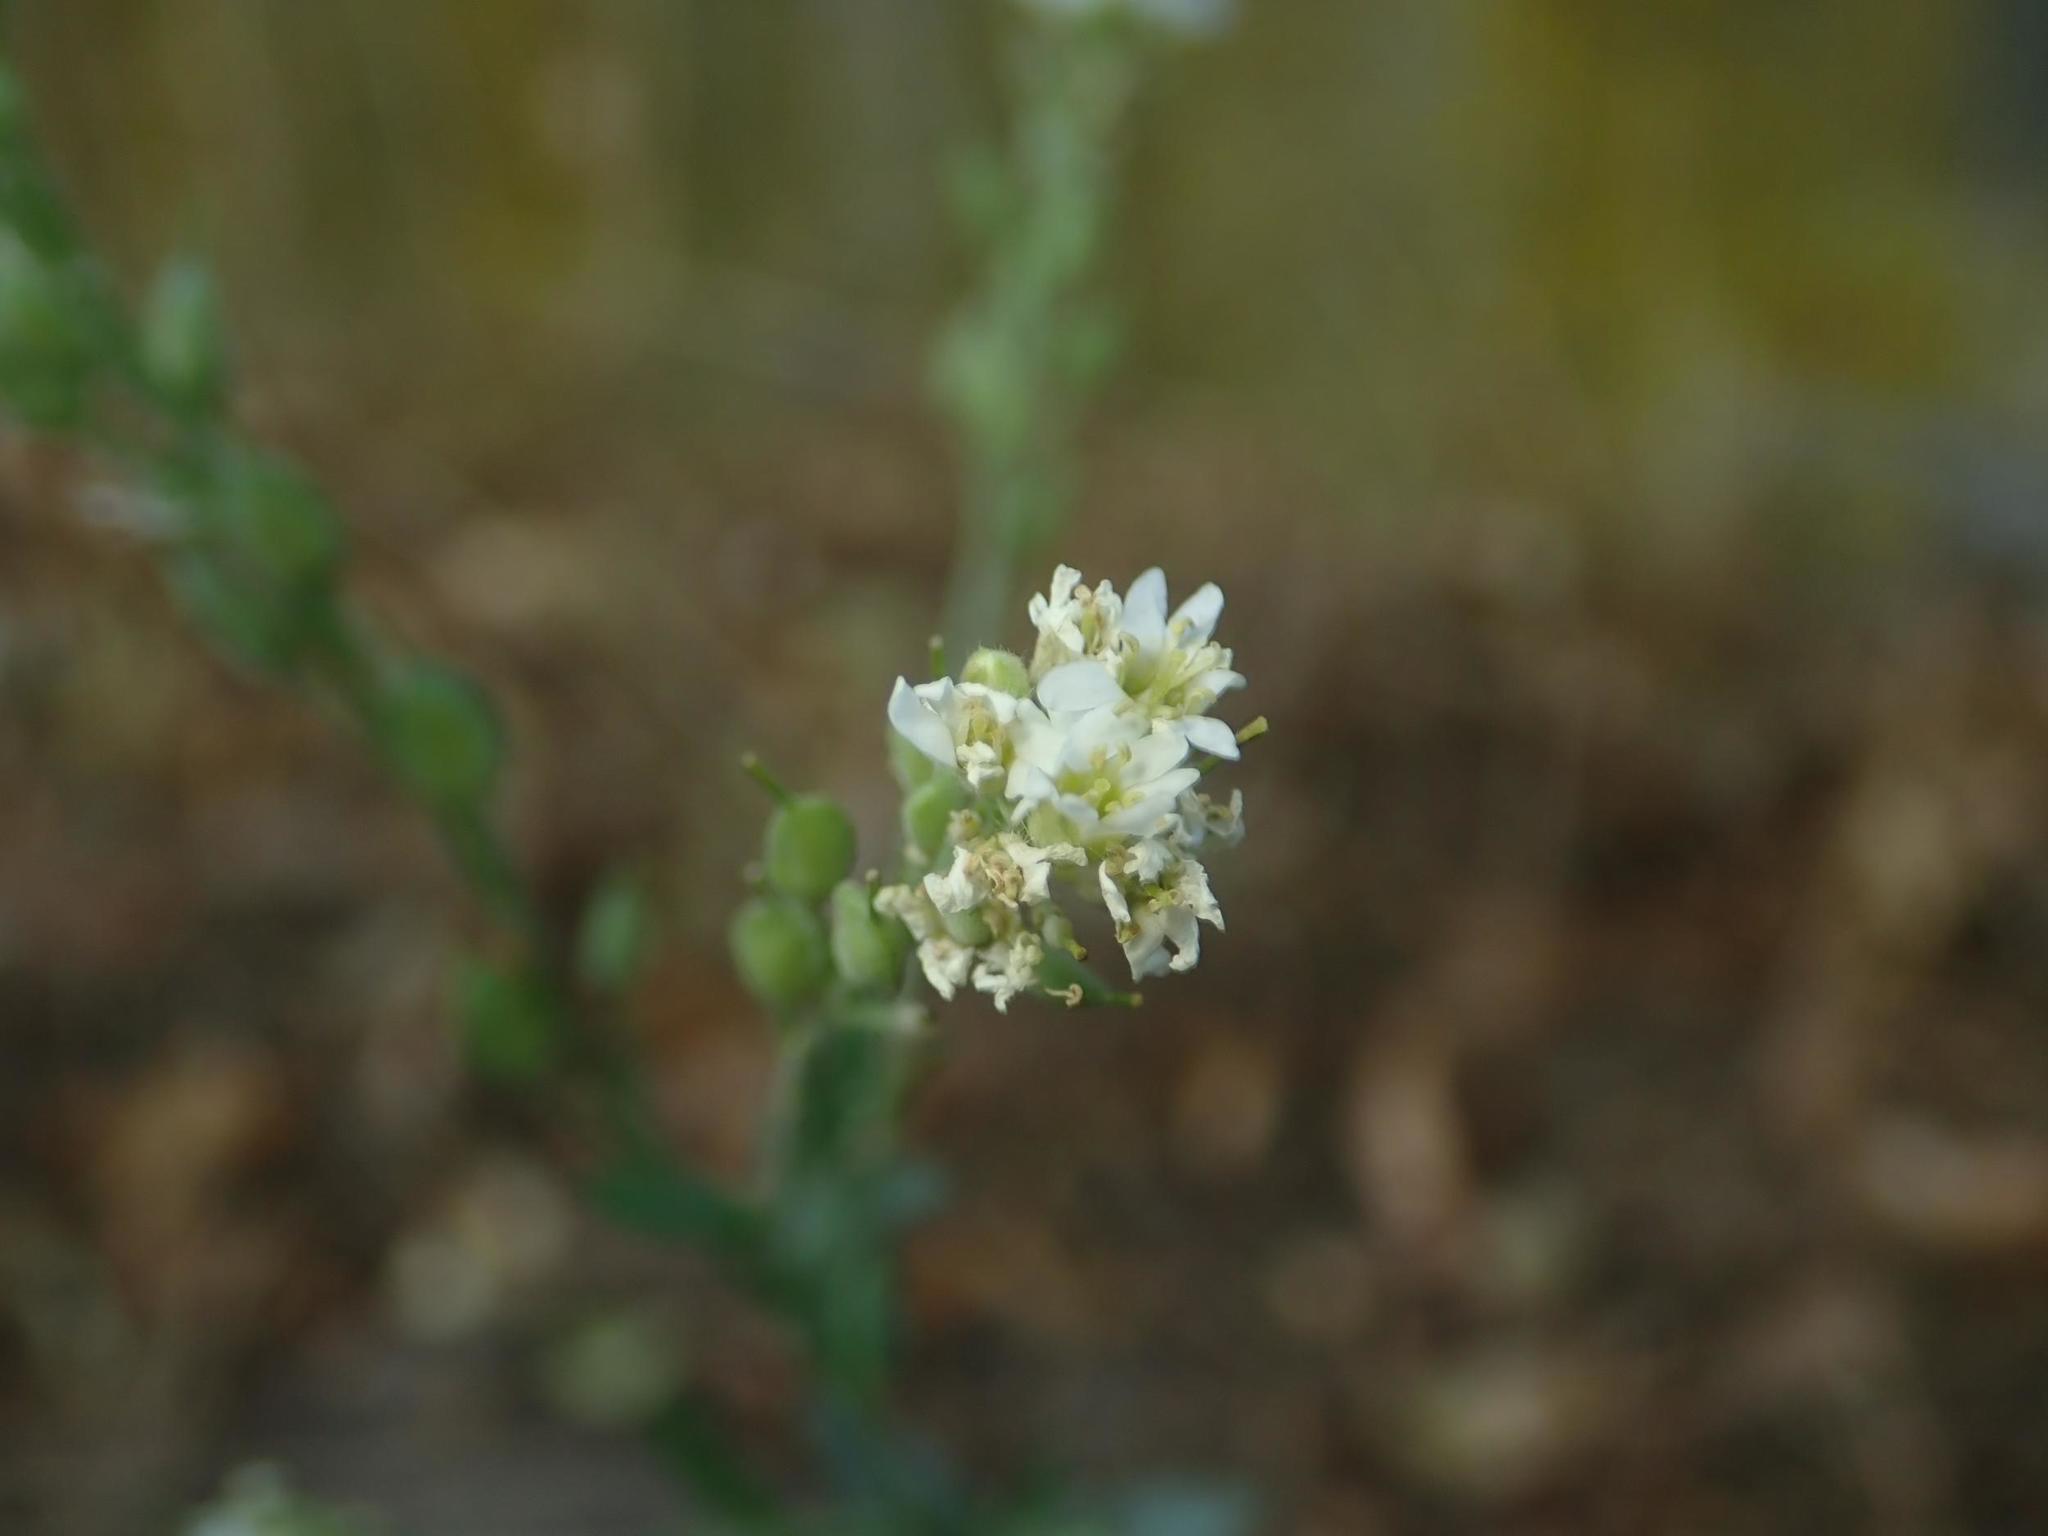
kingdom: Plantae
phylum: Tracheophyta
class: Magnoliopsida
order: Brassicales
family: Brassicaceae
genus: Berteroa
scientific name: Berteroa incana
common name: Hoary alison
